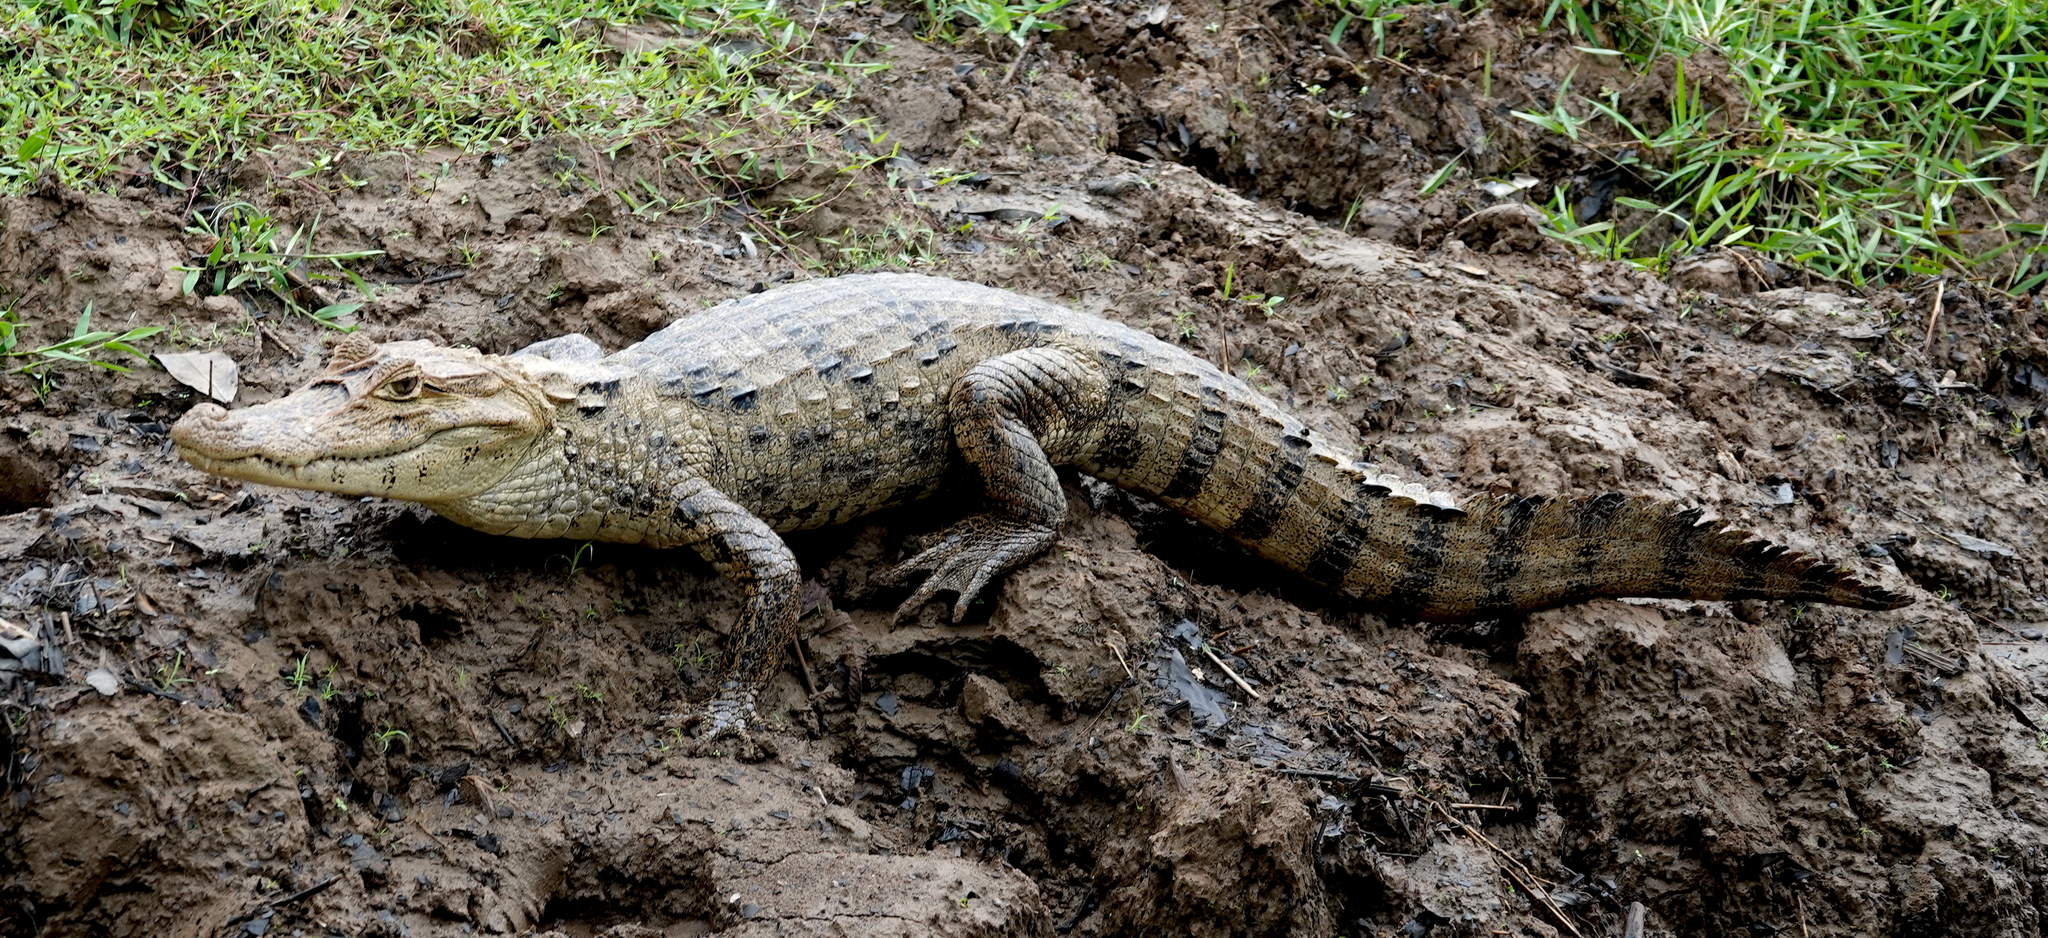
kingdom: Animalia
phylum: Chordata
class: Crocodylia
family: Alligatoridae
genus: Caiman
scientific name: Caiman crocodilus
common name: Common caiman
